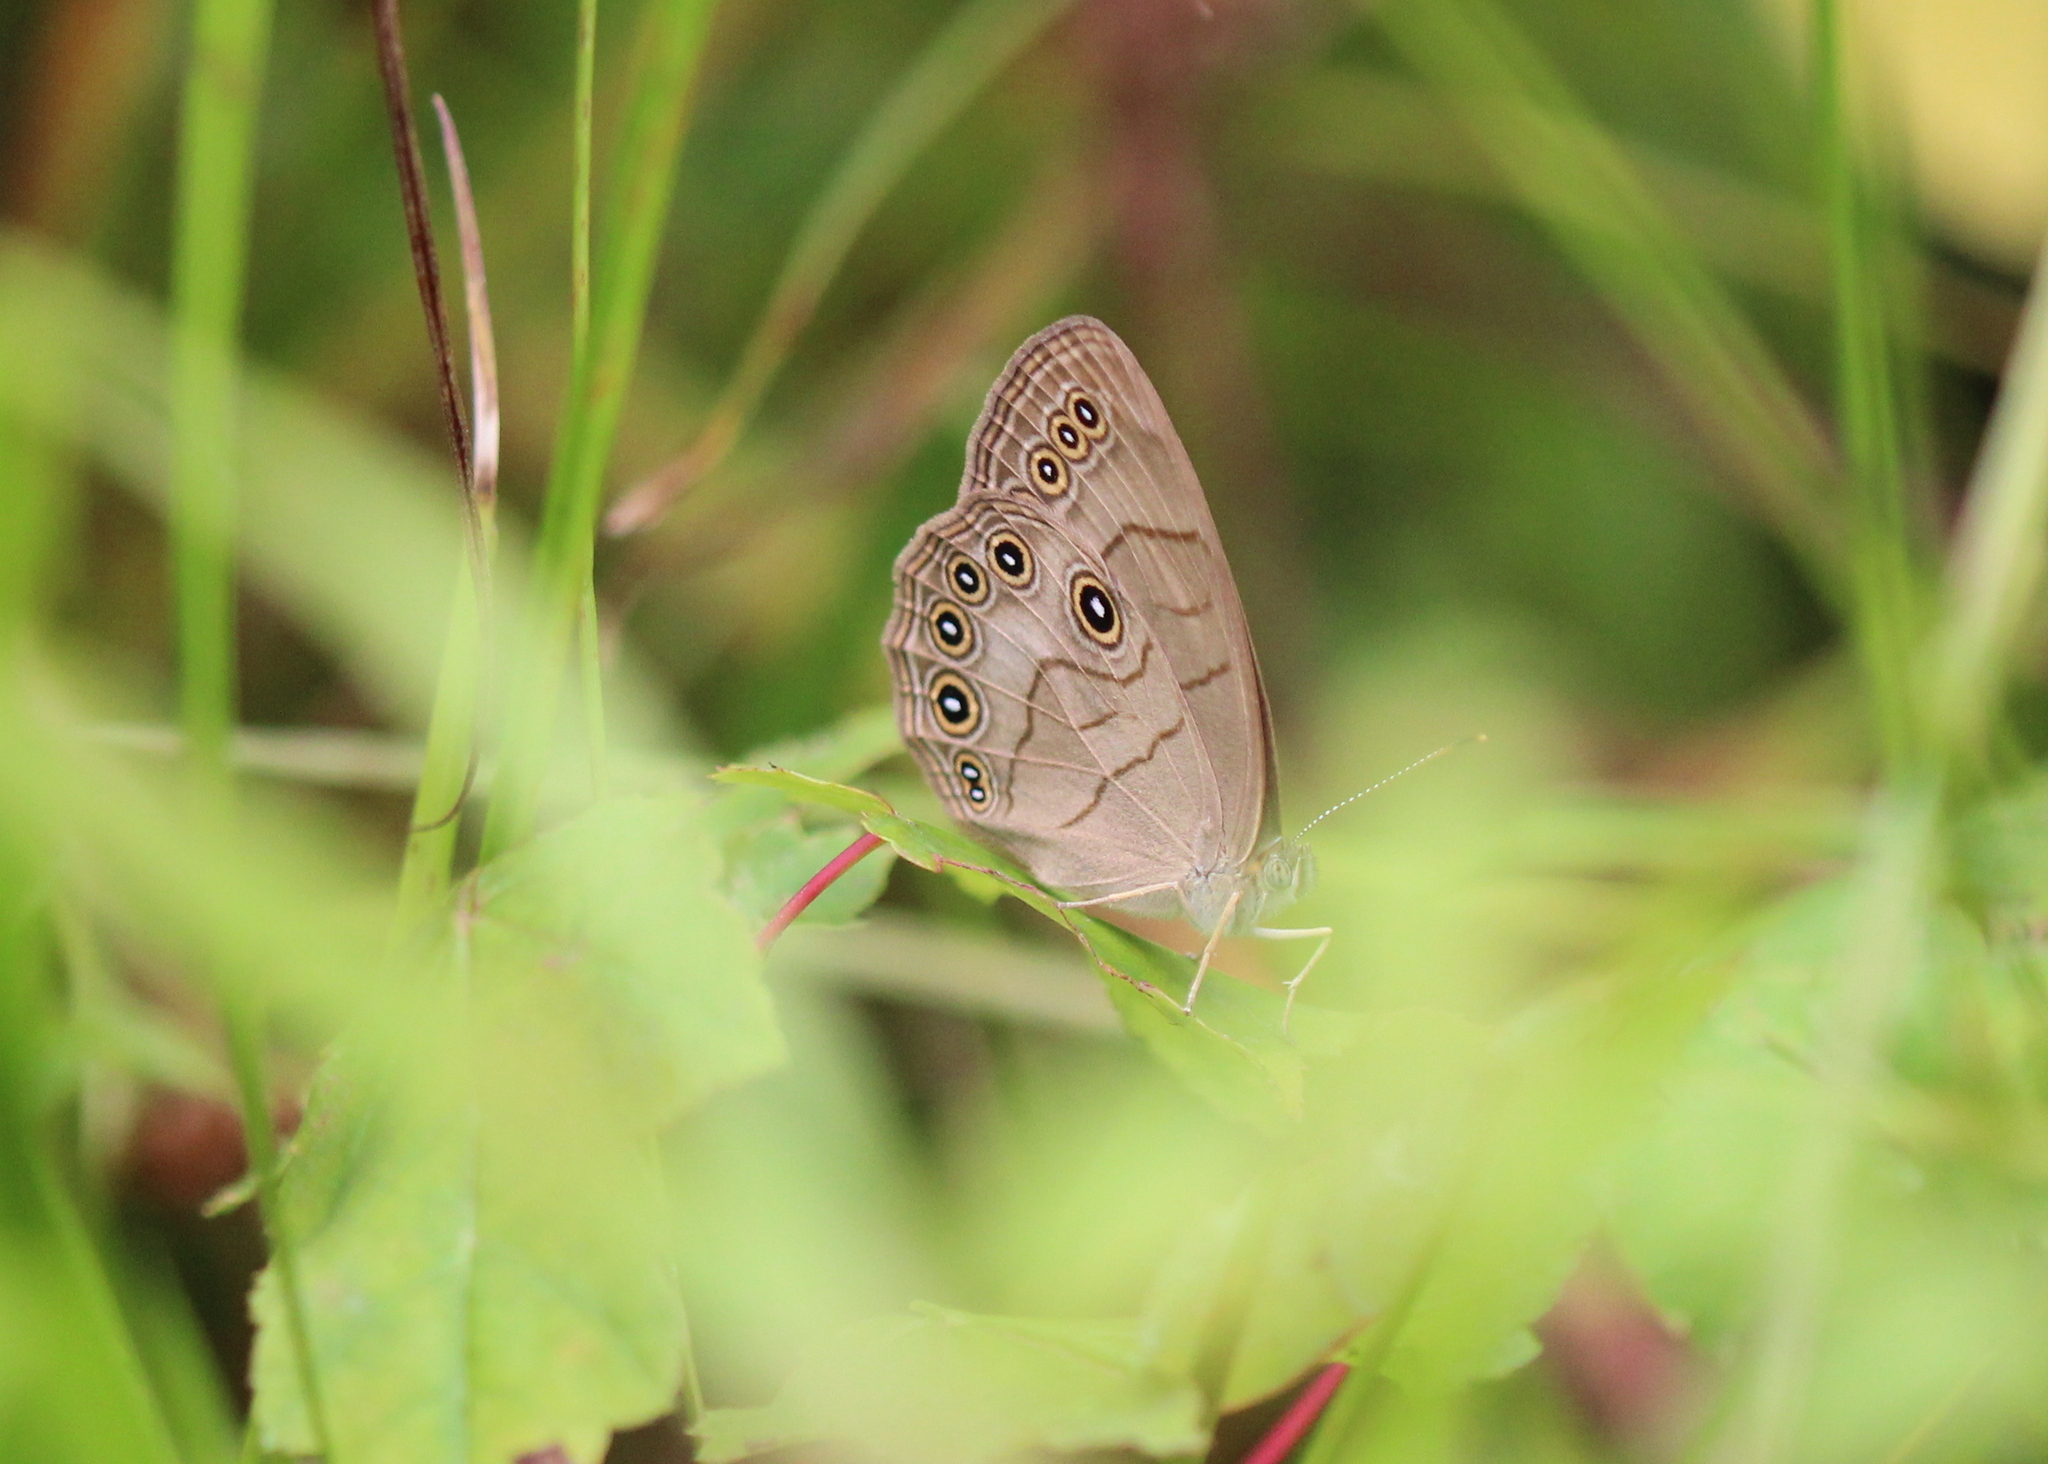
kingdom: Animalia
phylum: Arthropoda
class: Insecta
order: Lepidoptera
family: Nymphalidae
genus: Lethe
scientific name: Lethe eurydice
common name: Eyed brown
